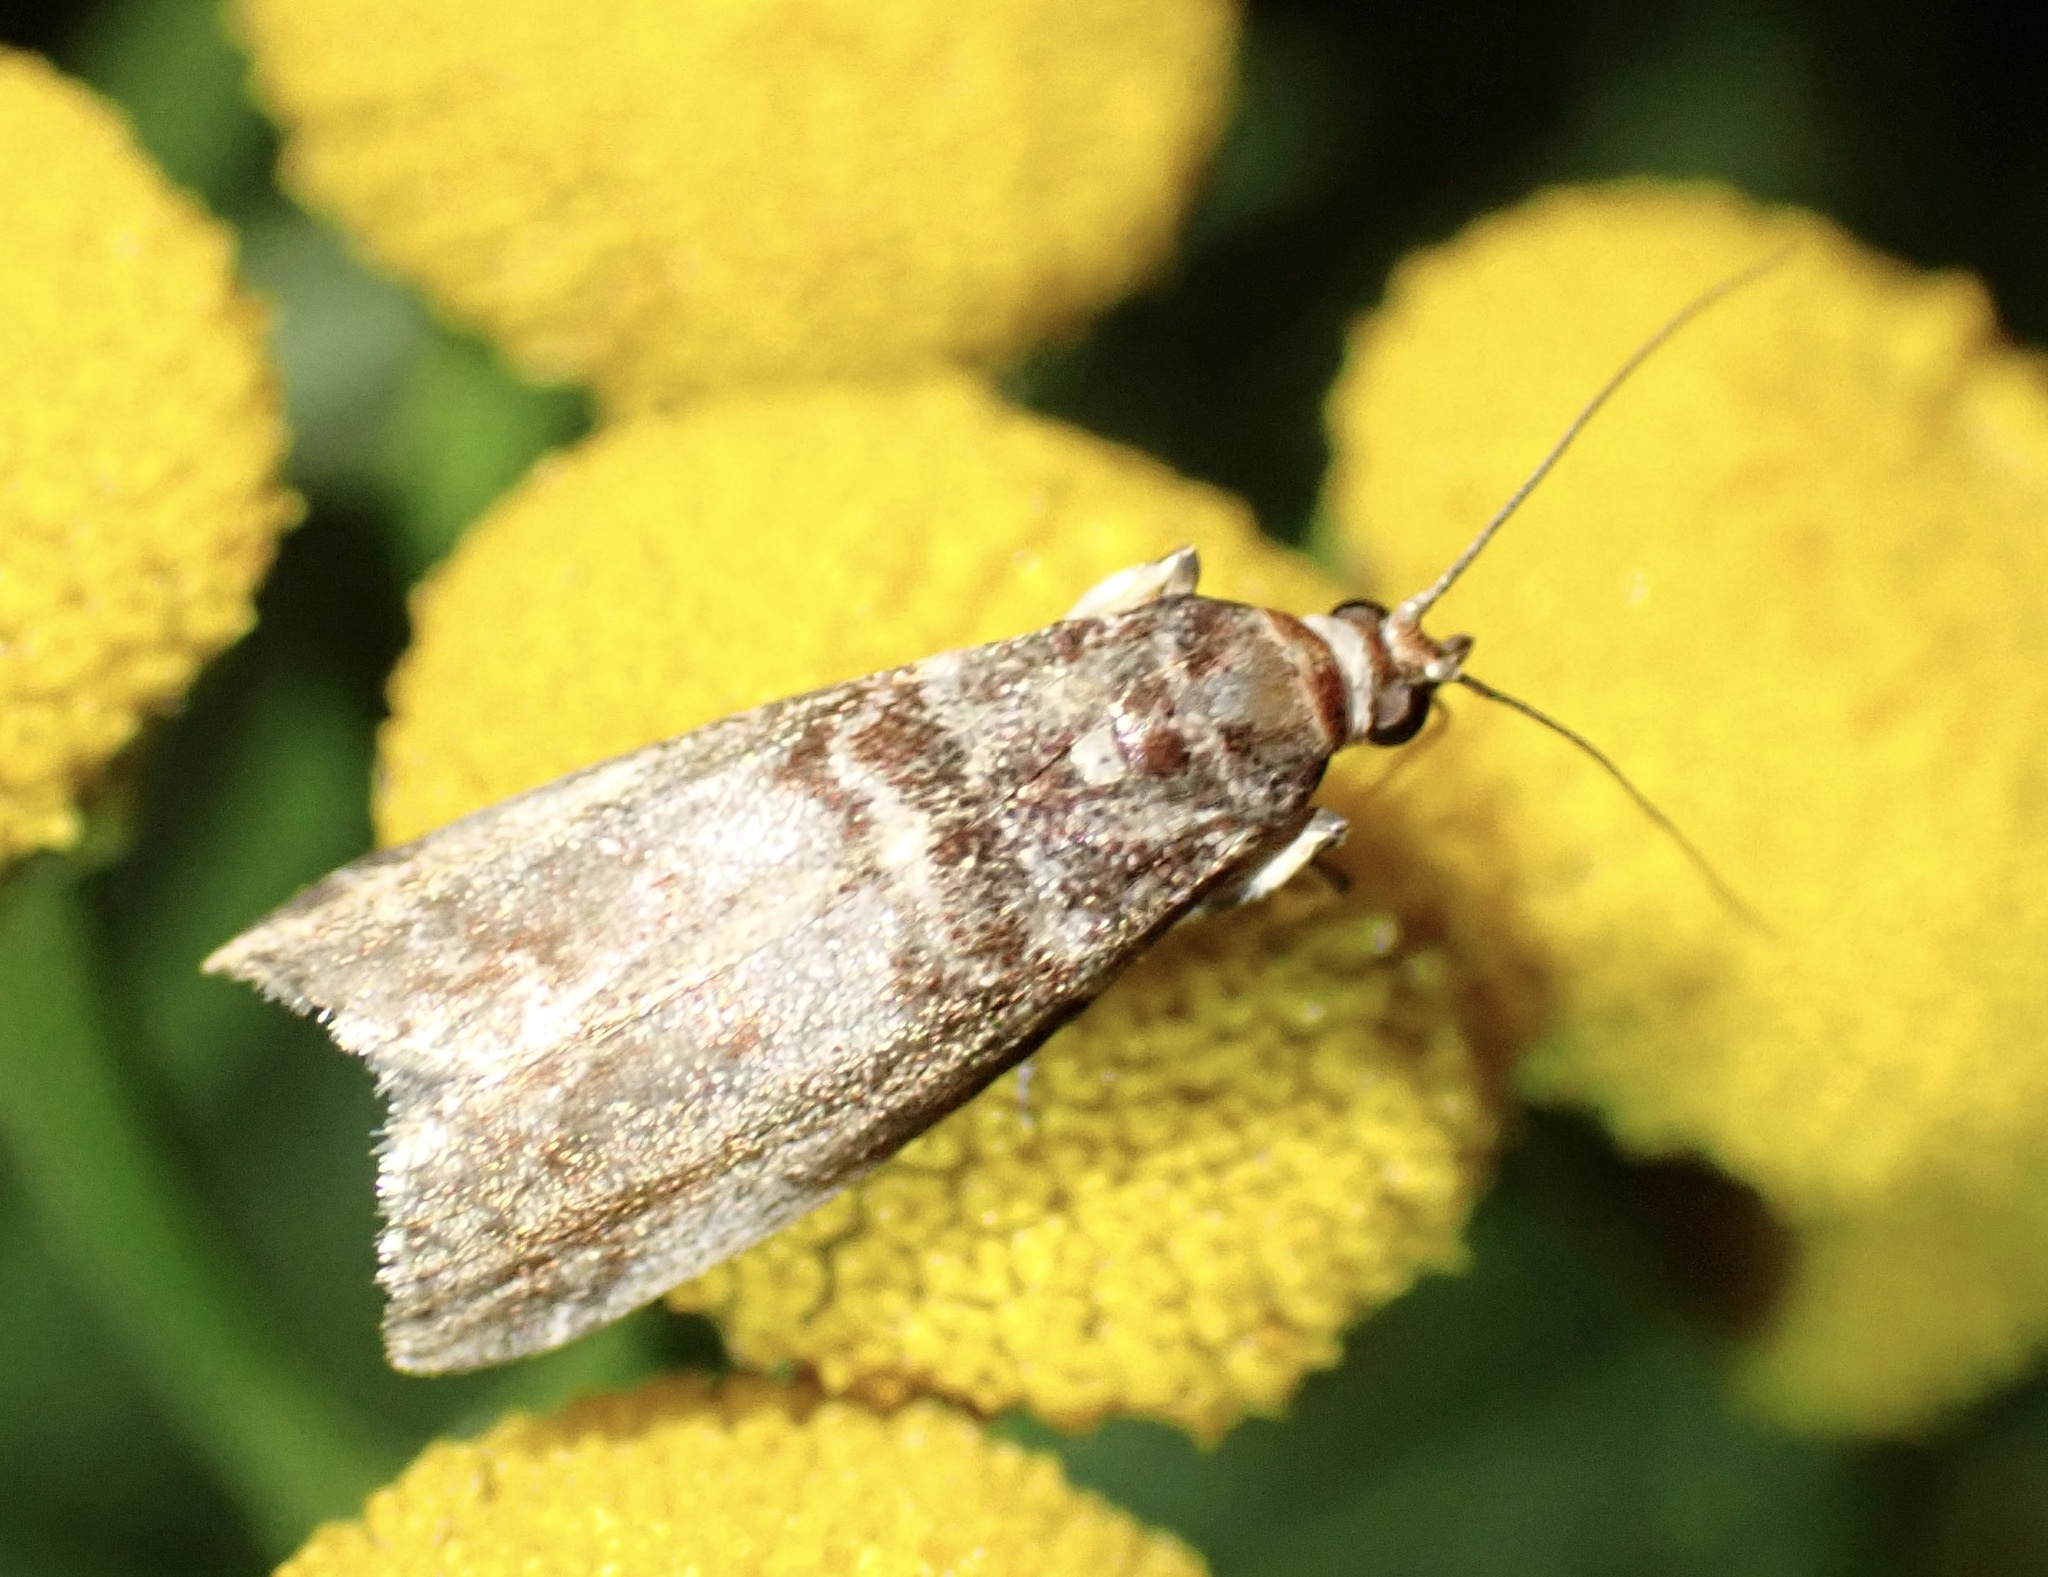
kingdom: Animalia
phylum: Arthropoda
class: Insecta
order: Lepidoptera
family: Pyralidae
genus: Acrobasis
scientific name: Acrobasis advenella
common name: Grey knot-horn
